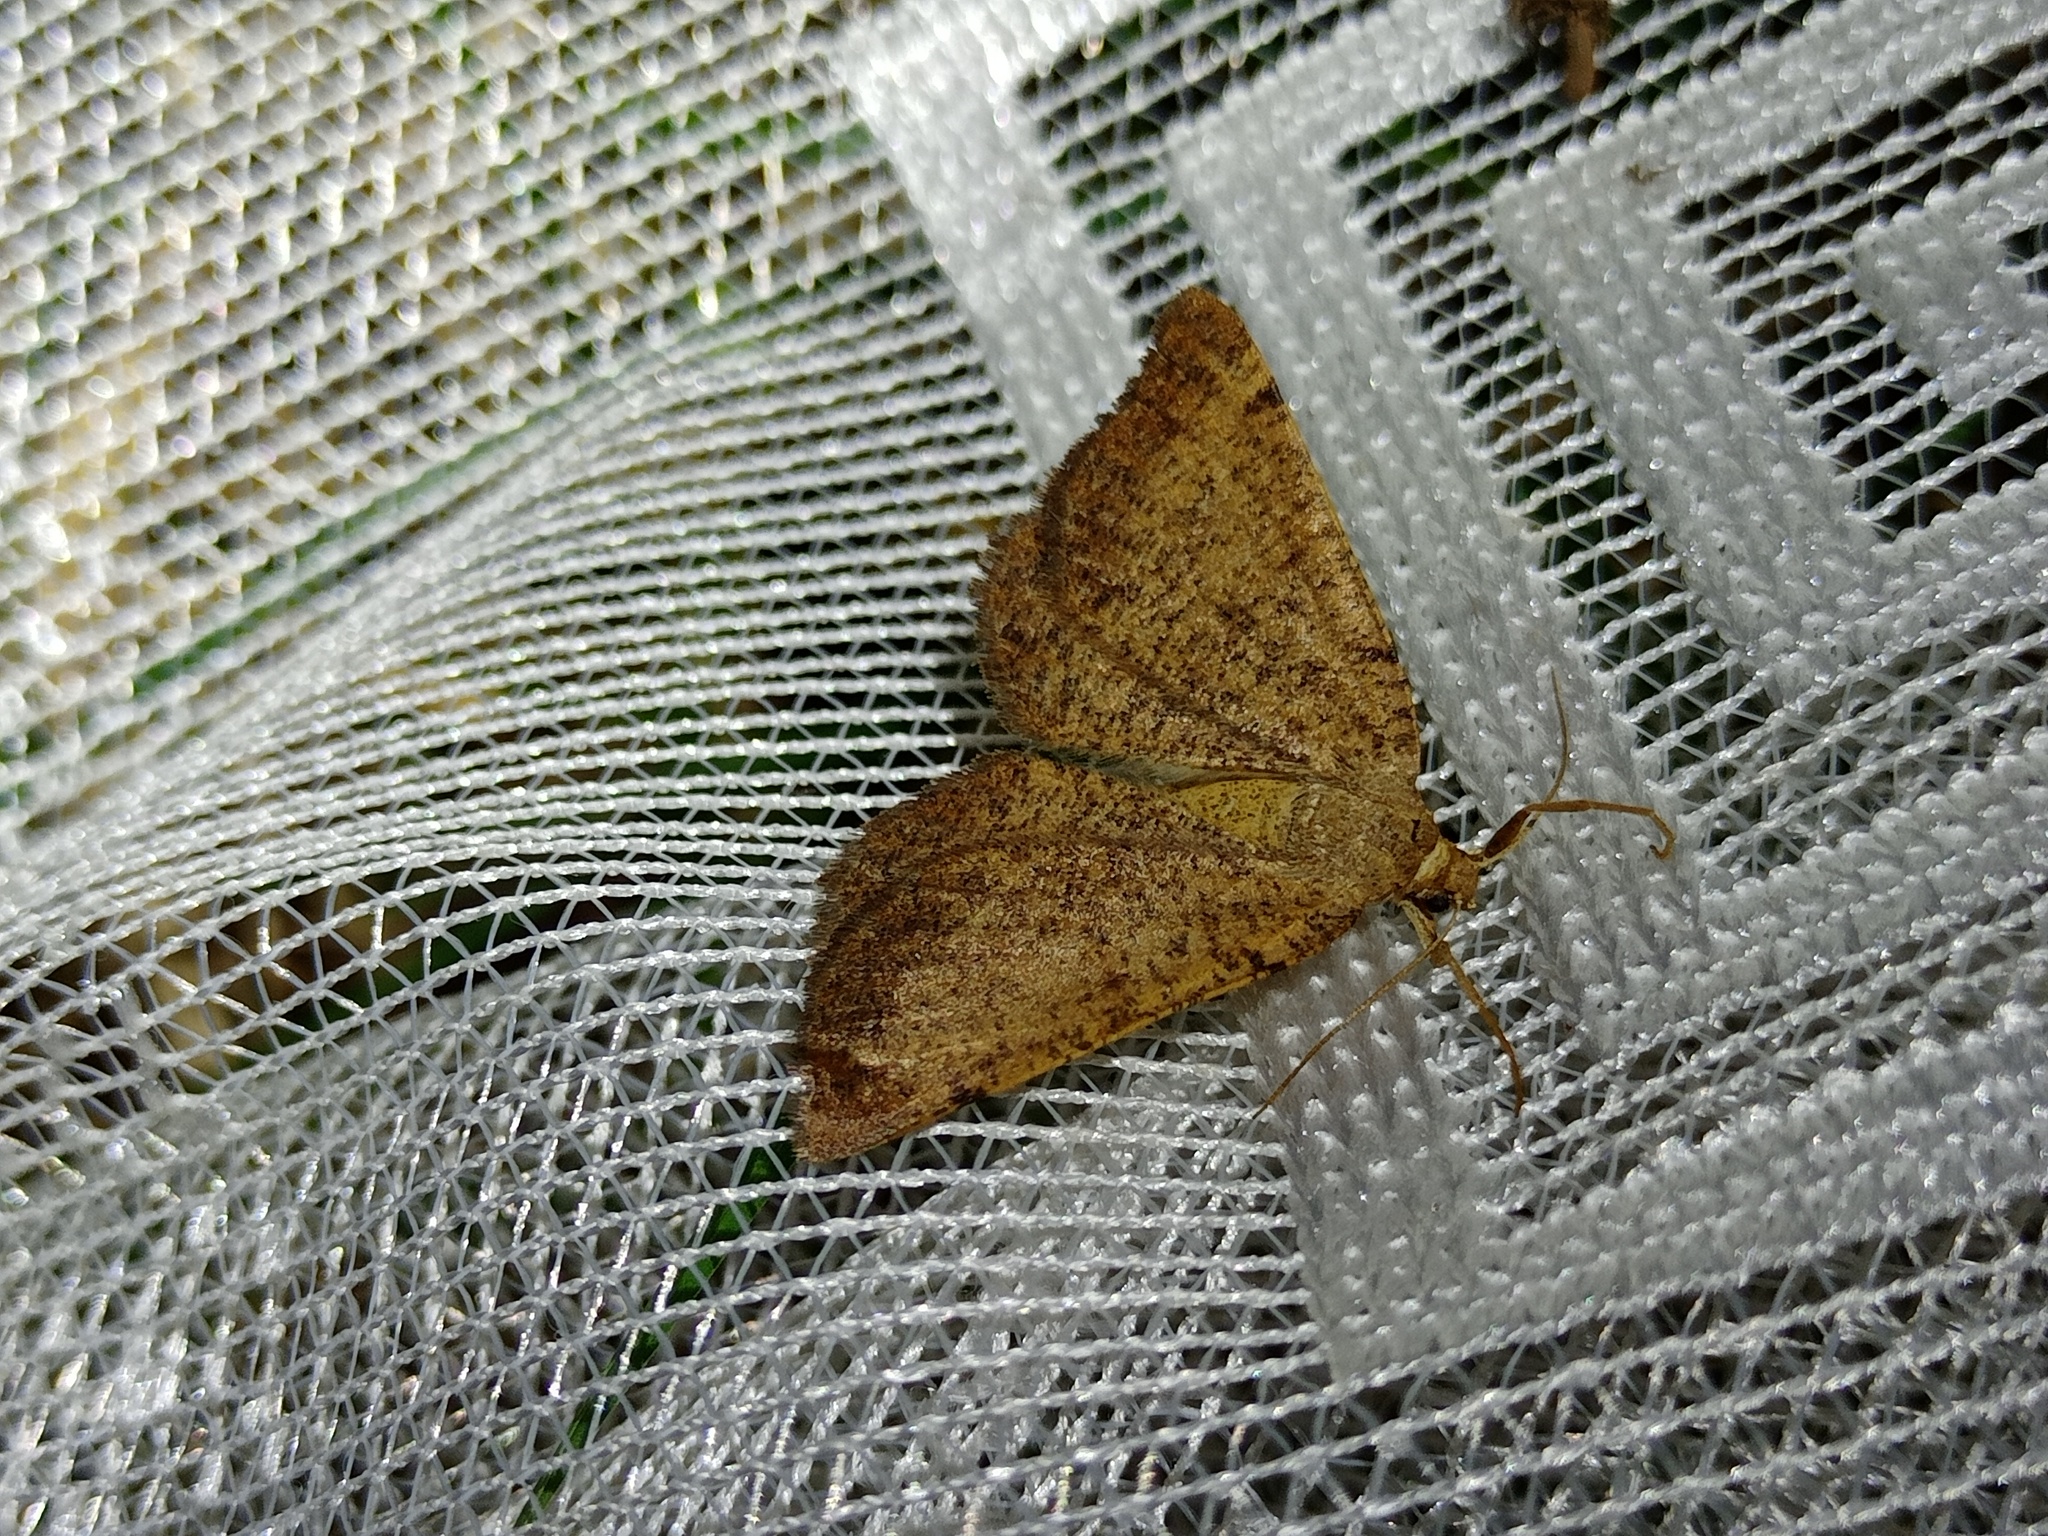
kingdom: Animalia
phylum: Arthropoda
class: Insecta
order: Lepidoptera
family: Geometridae
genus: Selidosema
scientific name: Selidosema brunnearia
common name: Bordered grey
